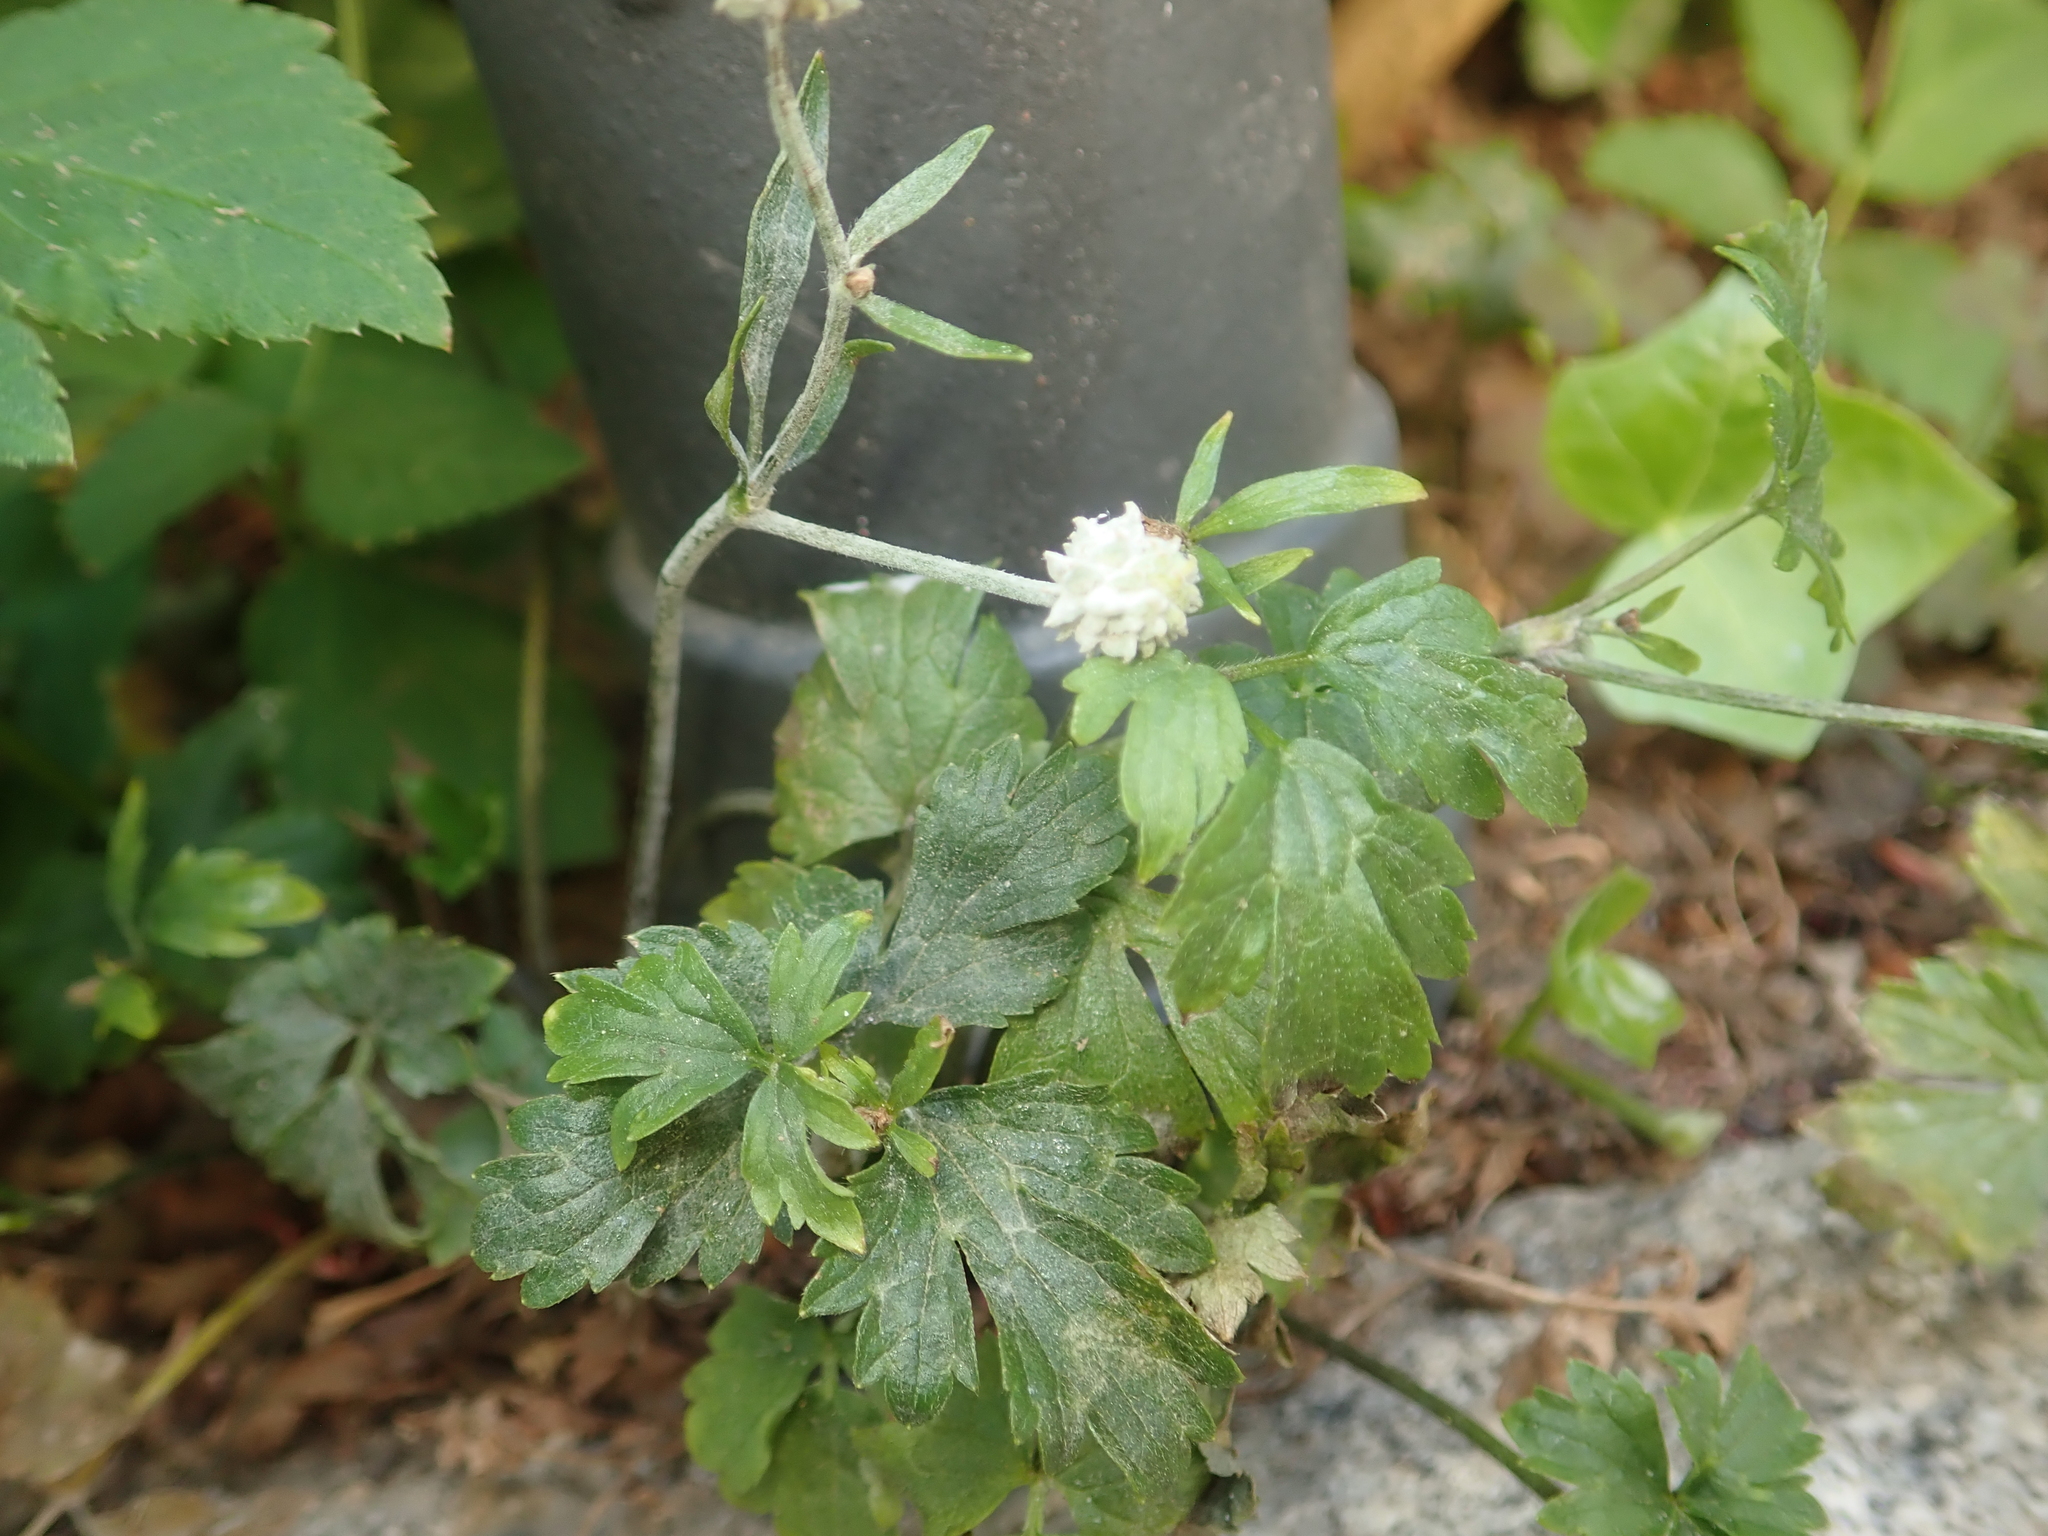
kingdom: Fungi
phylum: Ascomycota
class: Leotiomycetes
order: Helotiales
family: Erysiphaceae
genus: Erysiphe
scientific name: Erysiphe aquilegiae
